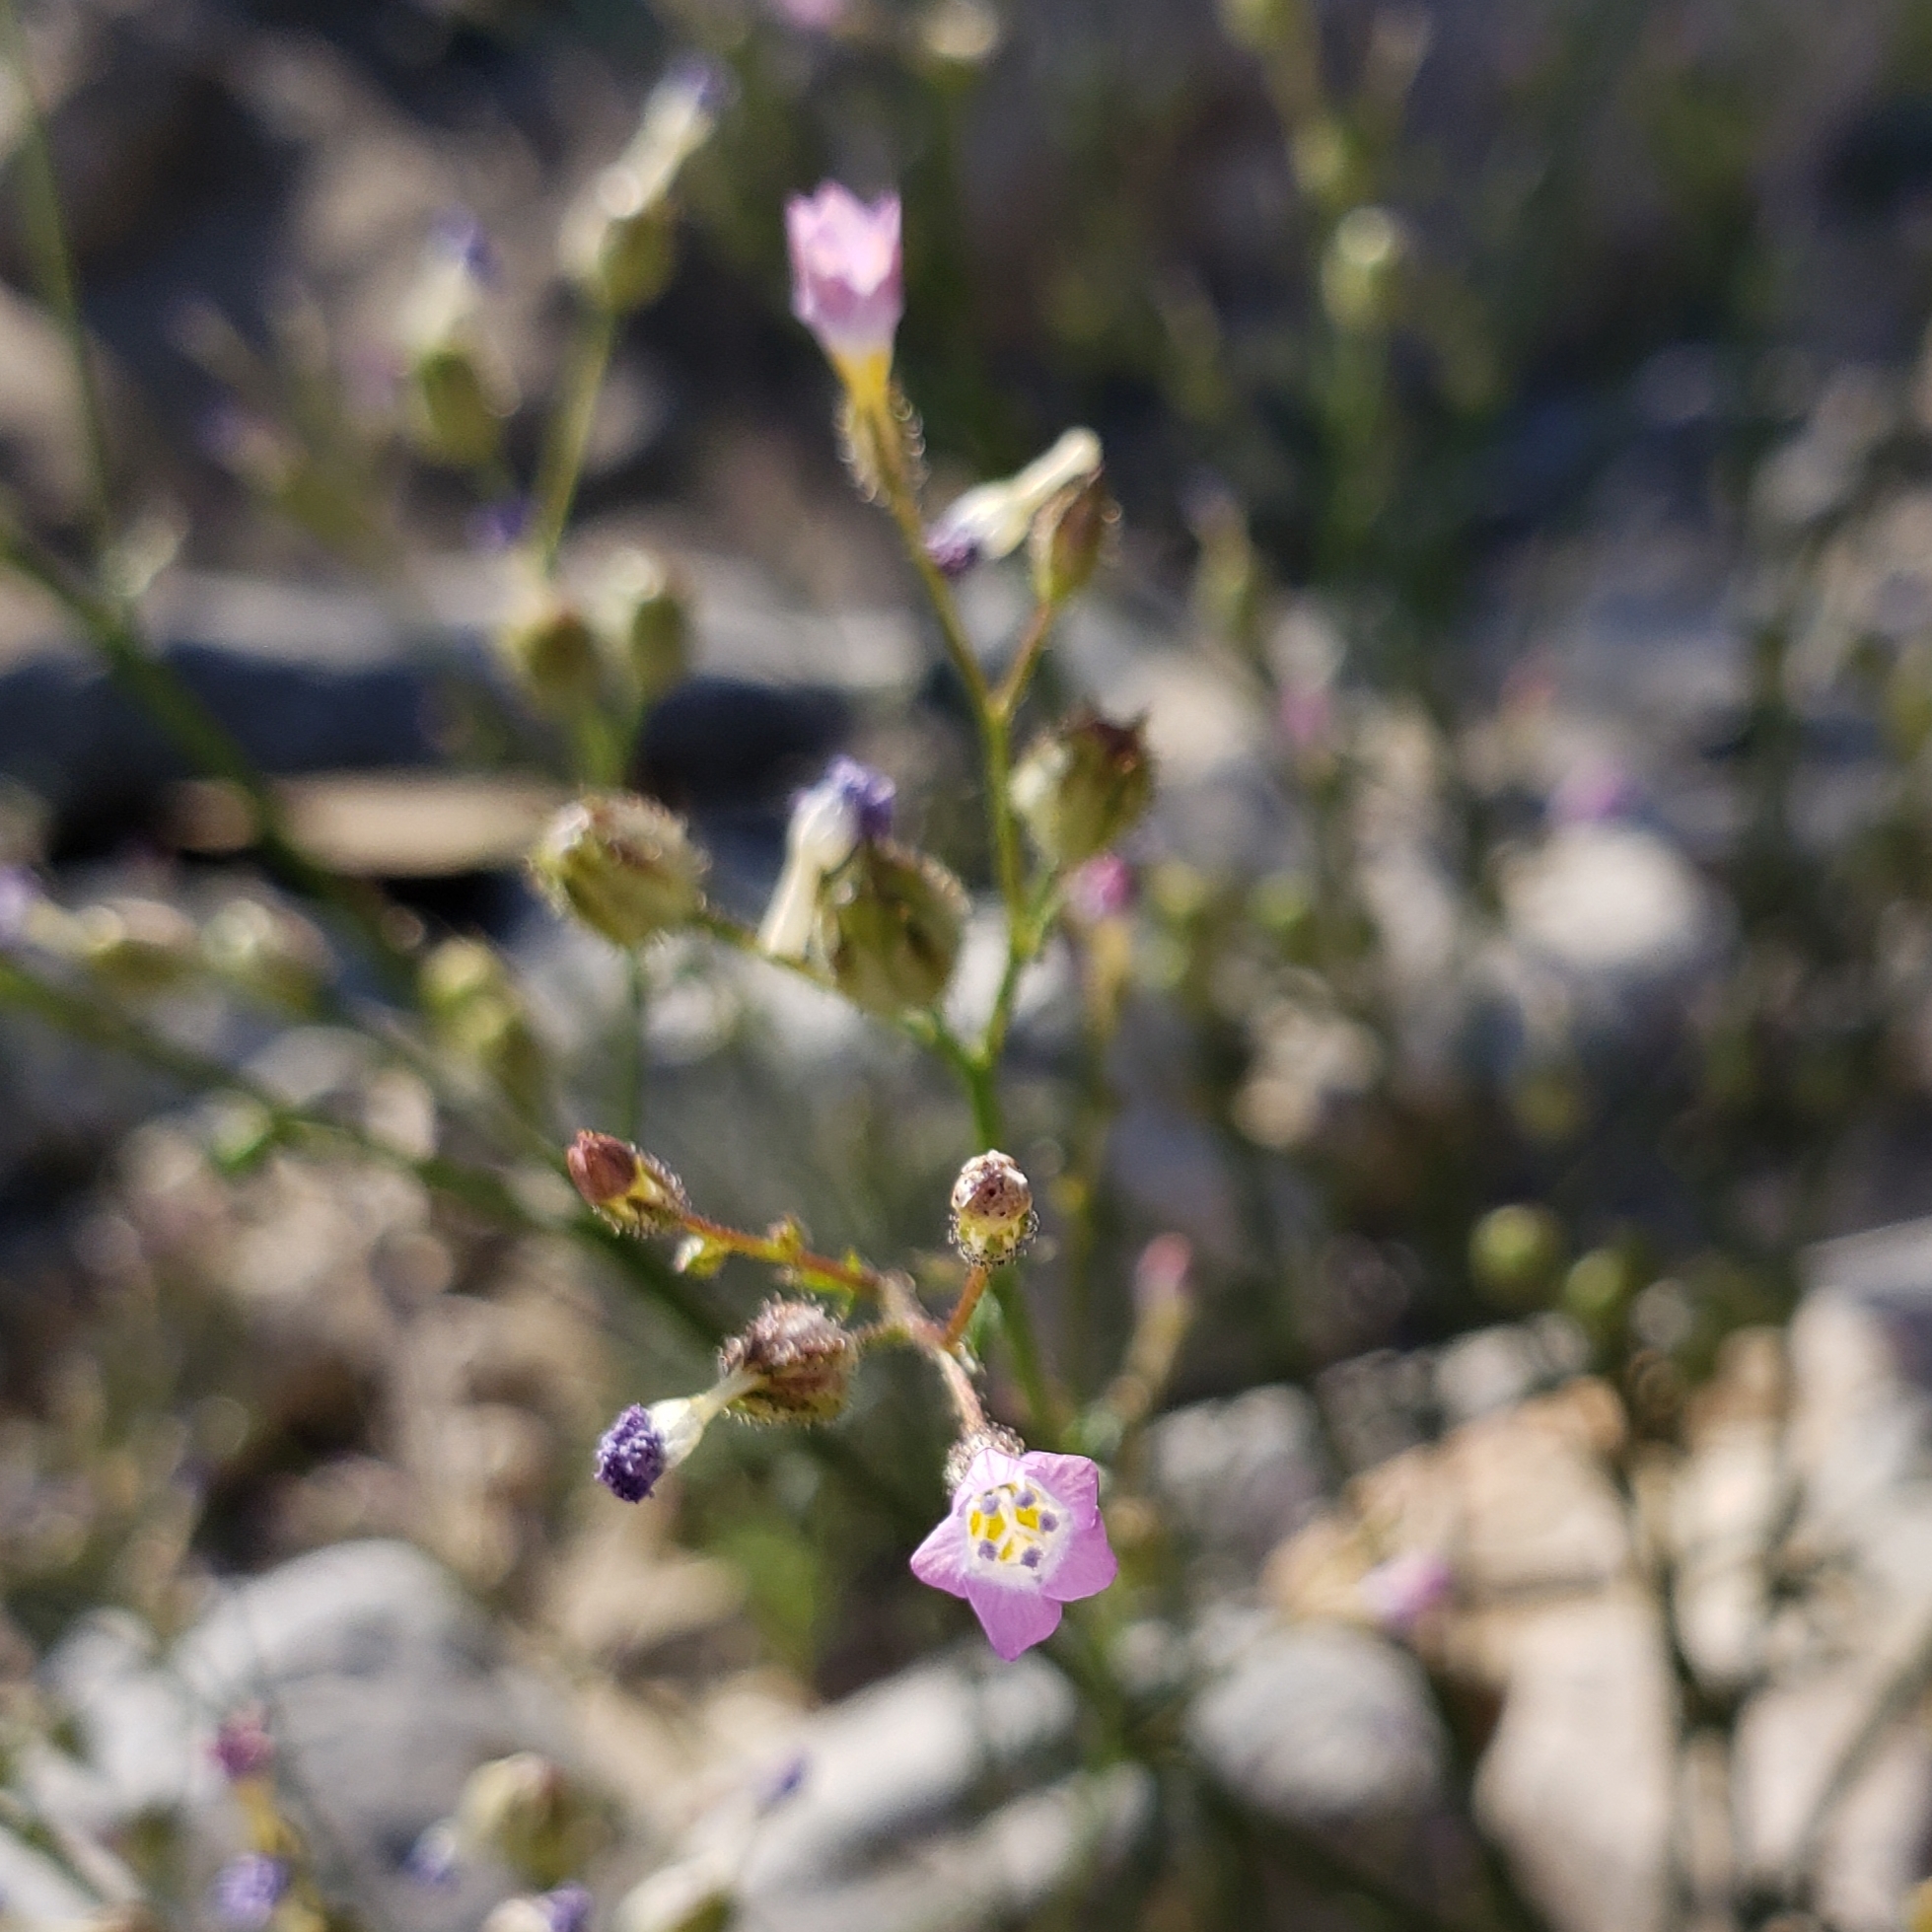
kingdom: Plantae
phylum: Tracheophyta
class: Magnoliopsida
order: Ericales
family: Polemoniaceae
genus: Gilia
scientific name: Gilia stellata
